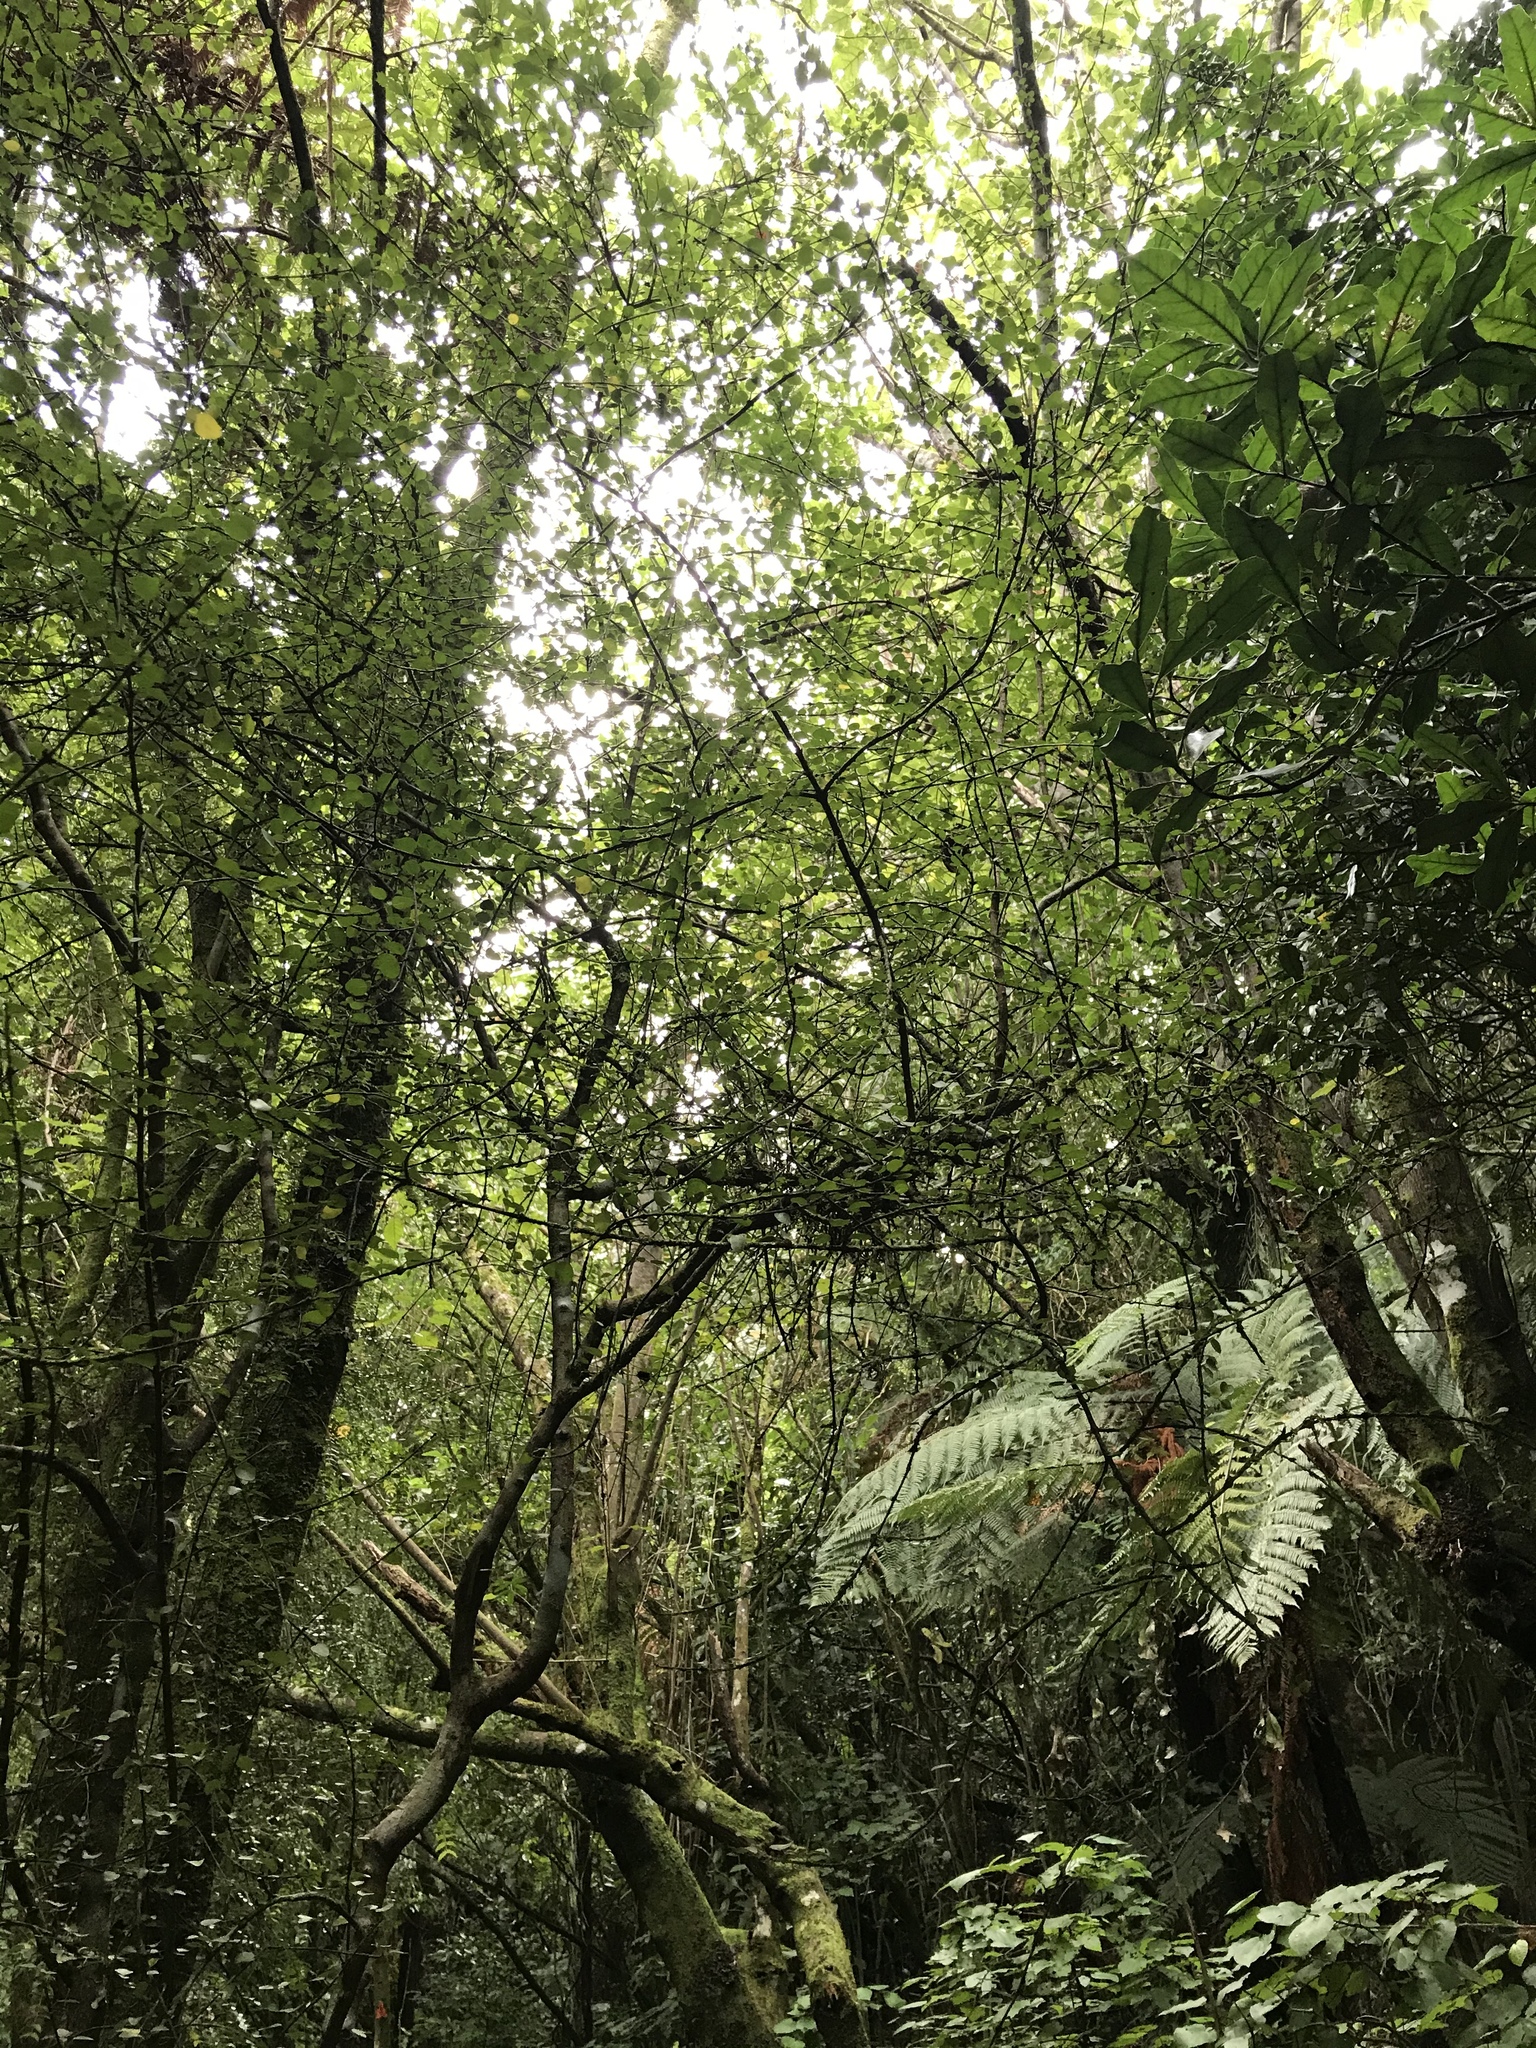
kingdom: Plantae
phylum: Tracheophyta
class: Magnoliopsida
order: Sapindales
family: Rutaceae
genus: Melicope
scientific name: Melicope simplex
